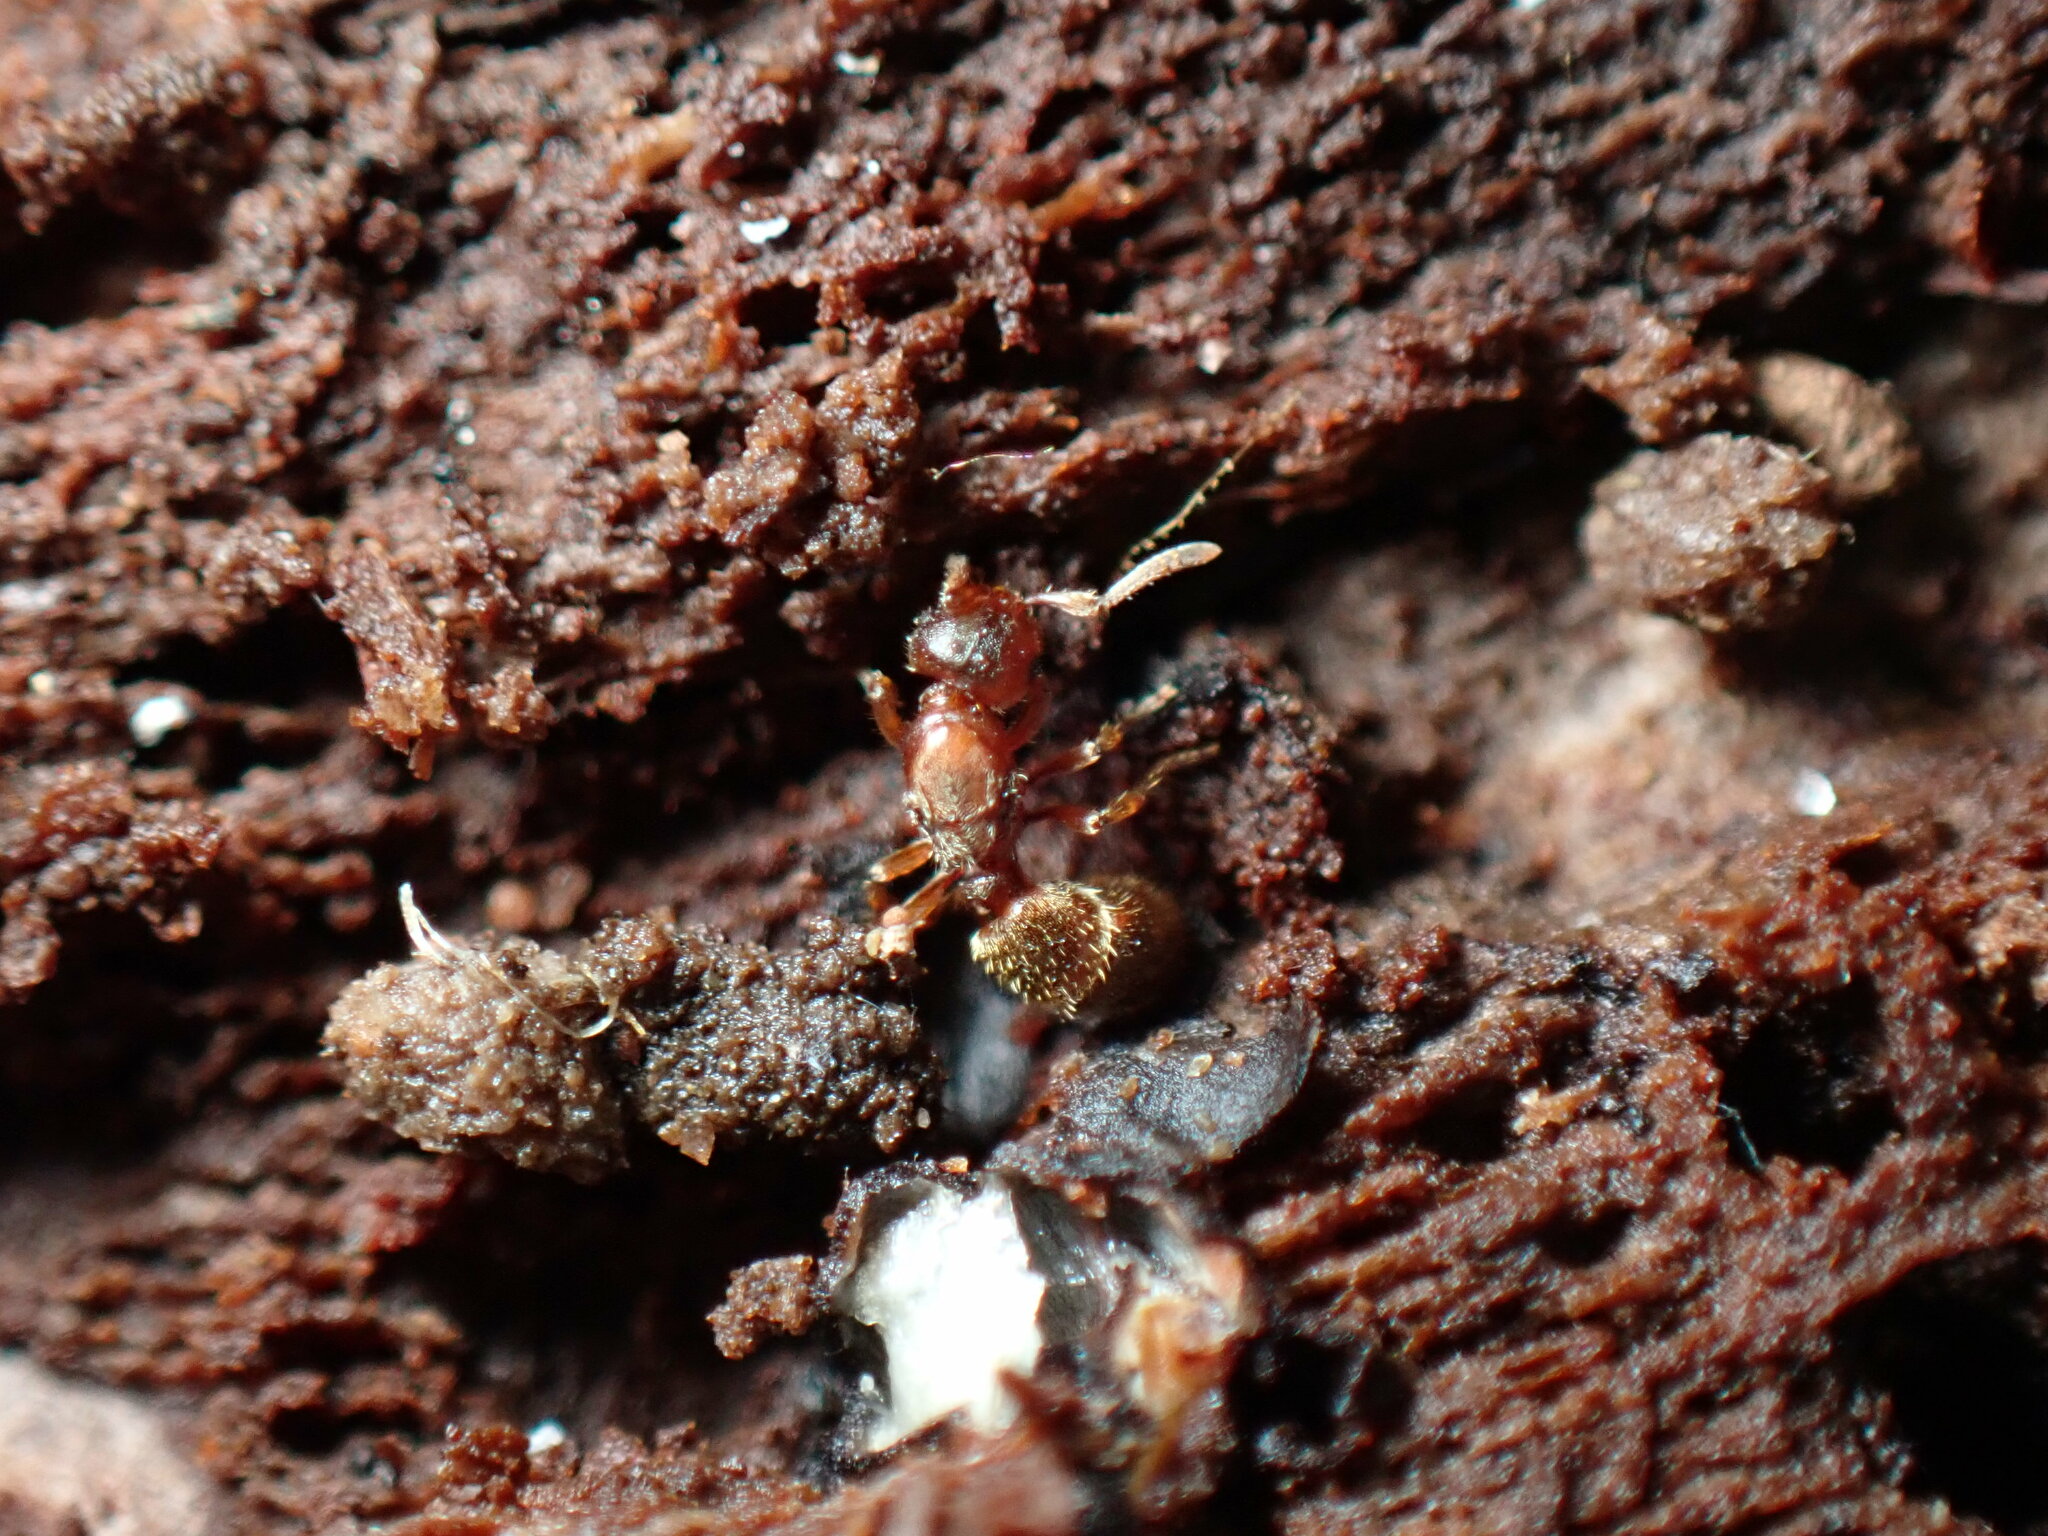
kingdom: Animalia
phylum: Arthropoda
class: Insecta
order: Hymenoptera
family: Formicidae
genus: Proceratium
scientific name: Proceratium silaceum
